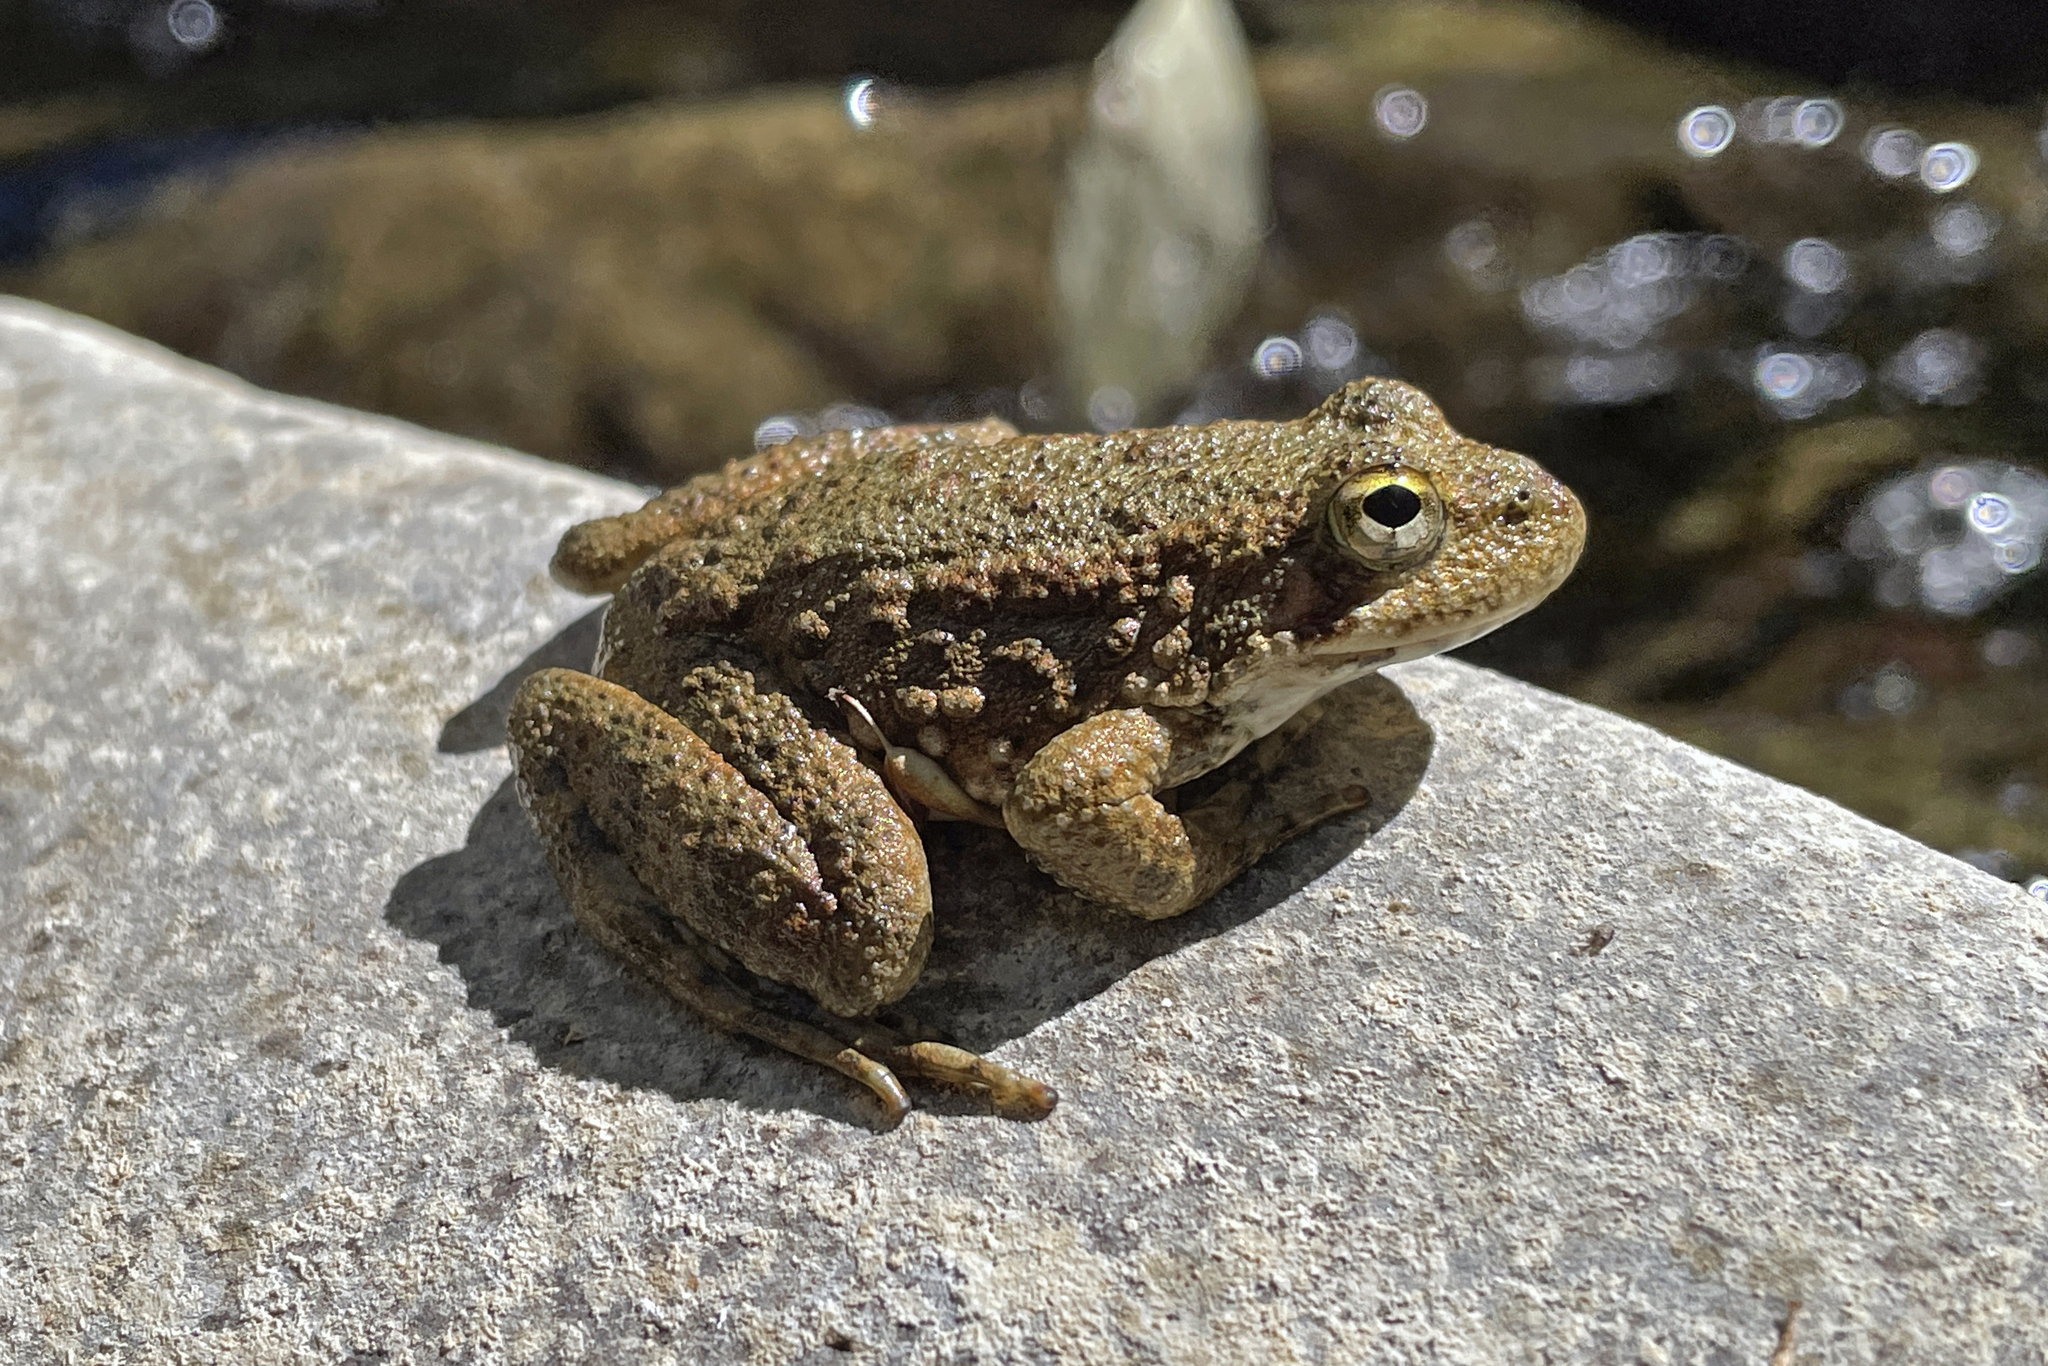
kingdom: Animalia
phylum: Chordata
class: Amphibia
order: Anura
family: Ranidae
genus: Rana
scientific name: Rana boylii
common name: Foothill yellow-legged frog
